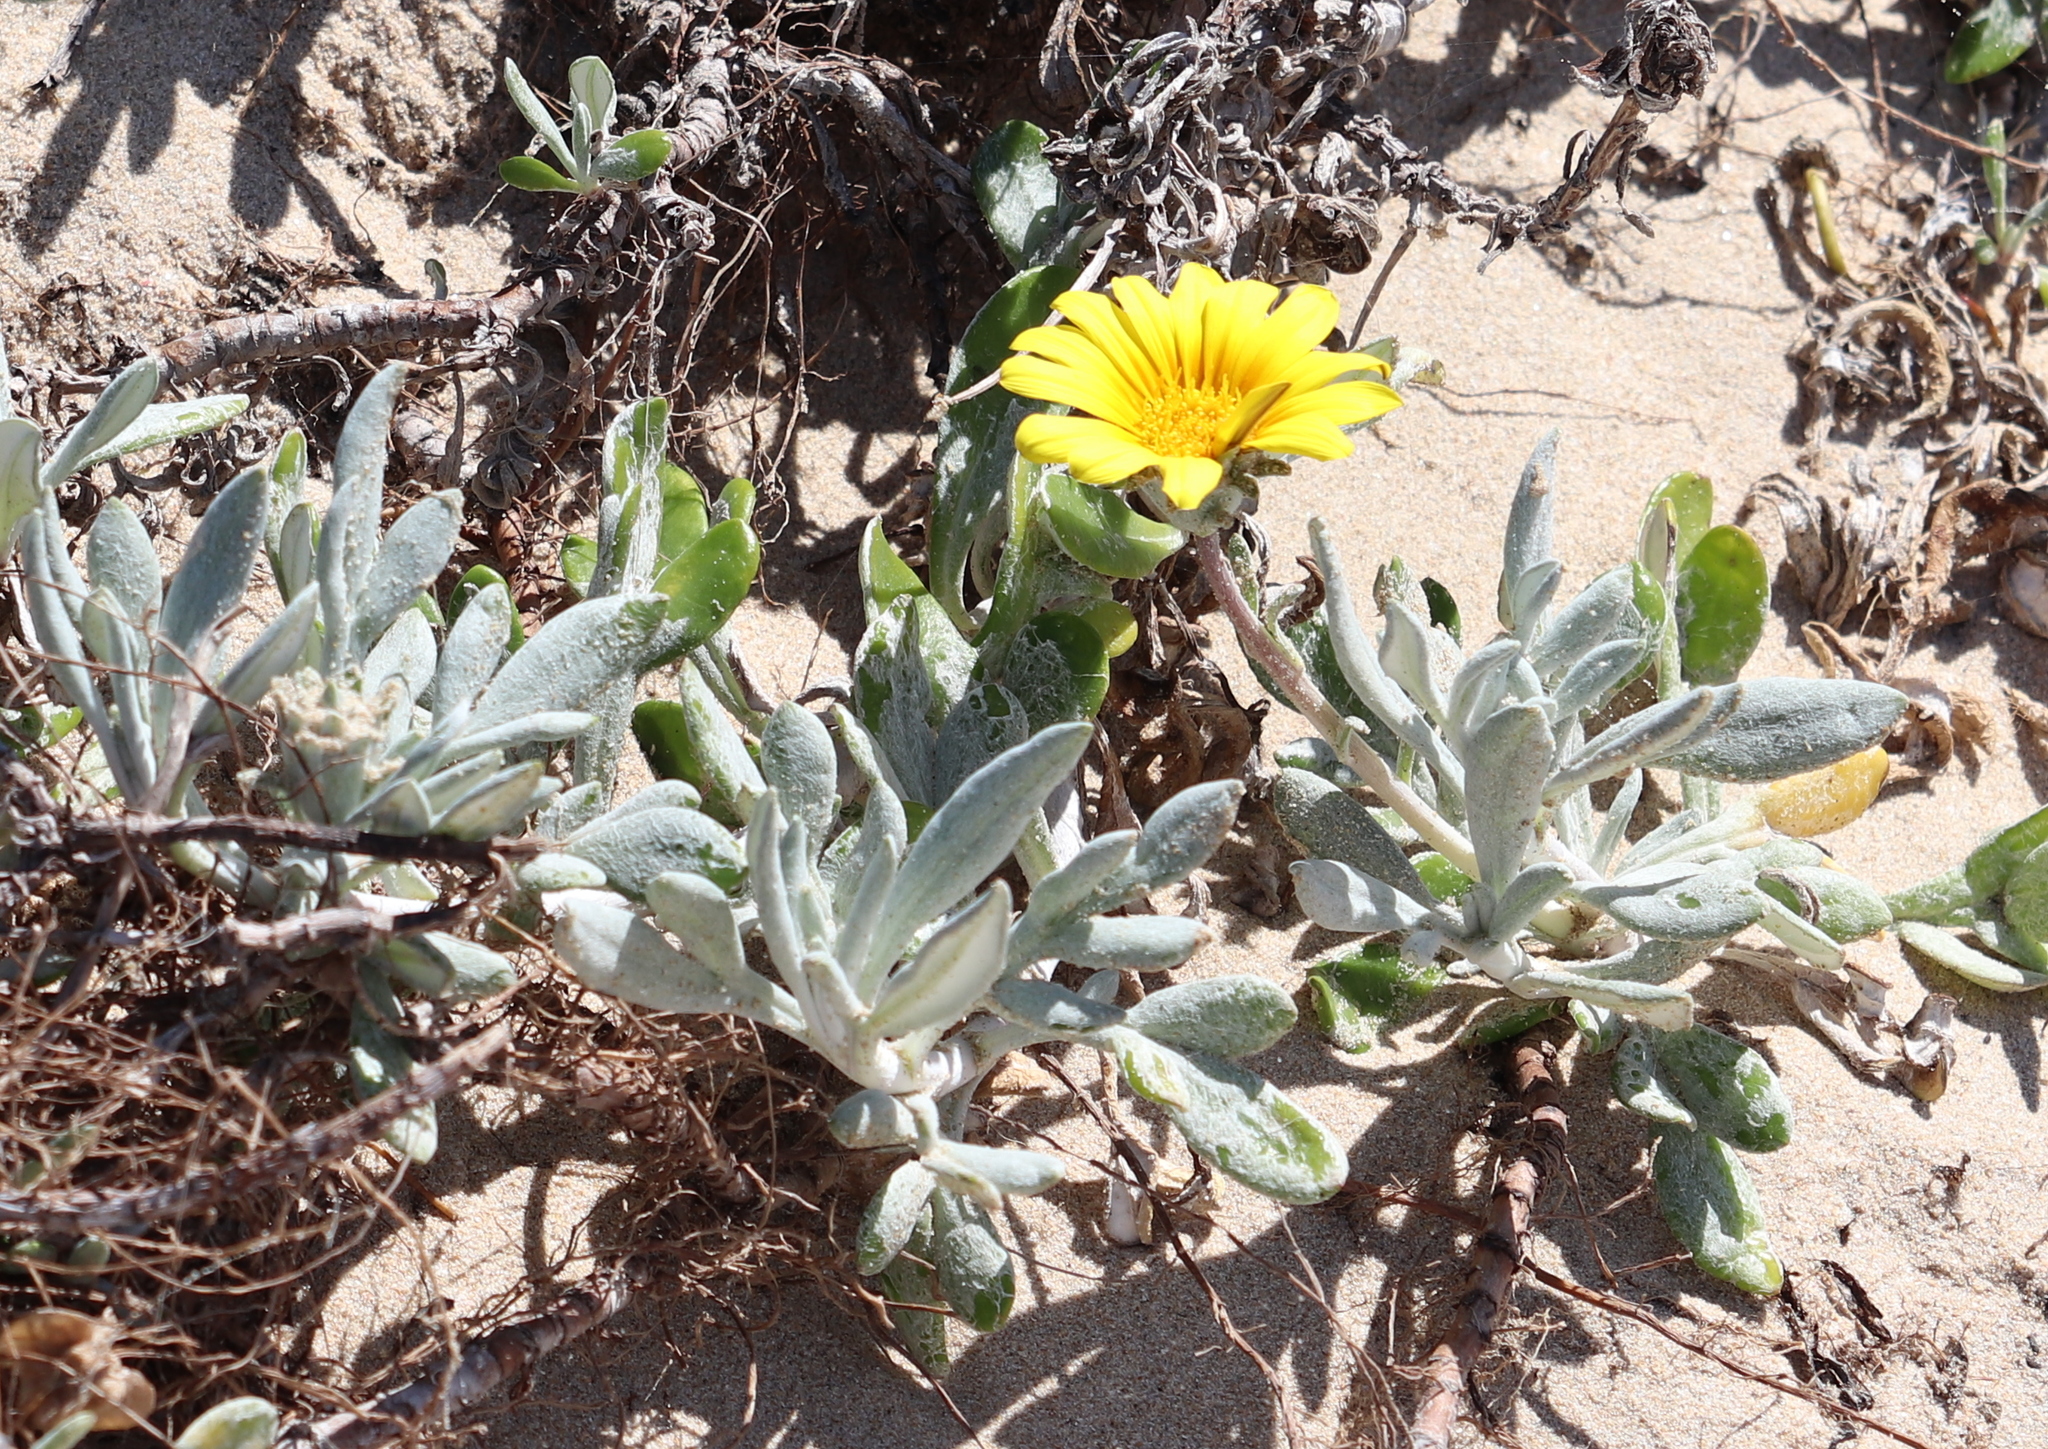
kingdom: Plantae
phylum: Tracheophyta
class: Magnoliopsida
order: Asterales
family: Asteraceae
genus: Gazania
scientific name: Gazania rigens
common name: Treasureflower
